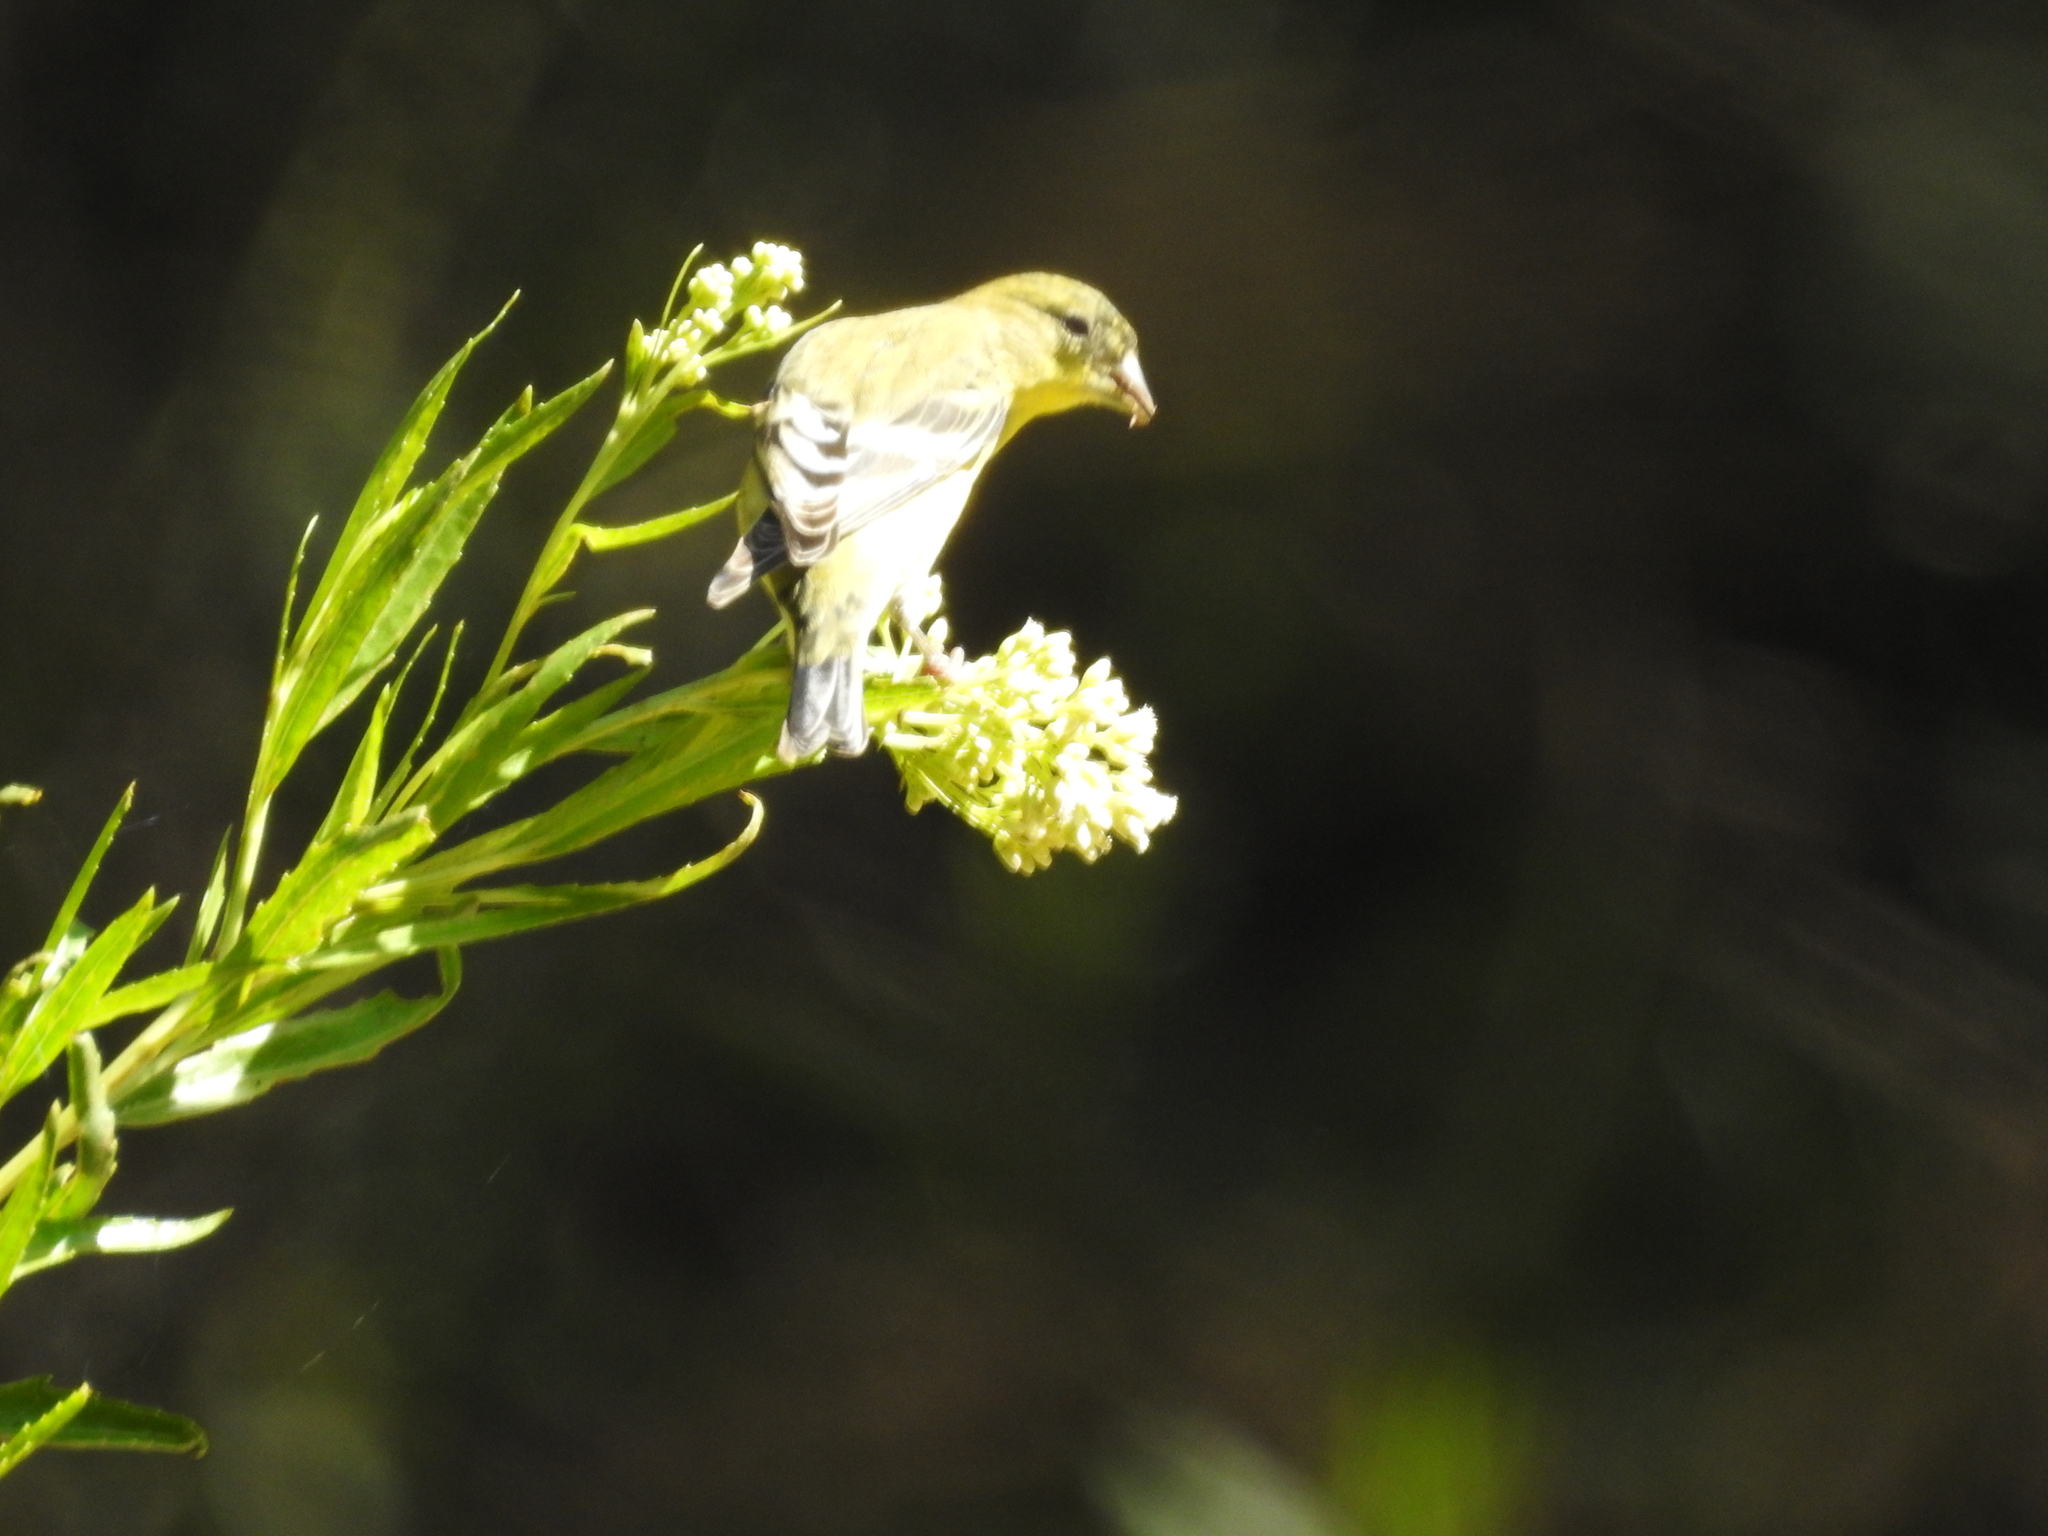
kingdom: Animalia
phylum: Chordata
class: Aves
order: Passeriformes
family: Fringillidae
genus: Spinus
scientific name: Spinus psaltria
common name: Lesser goldfinch
